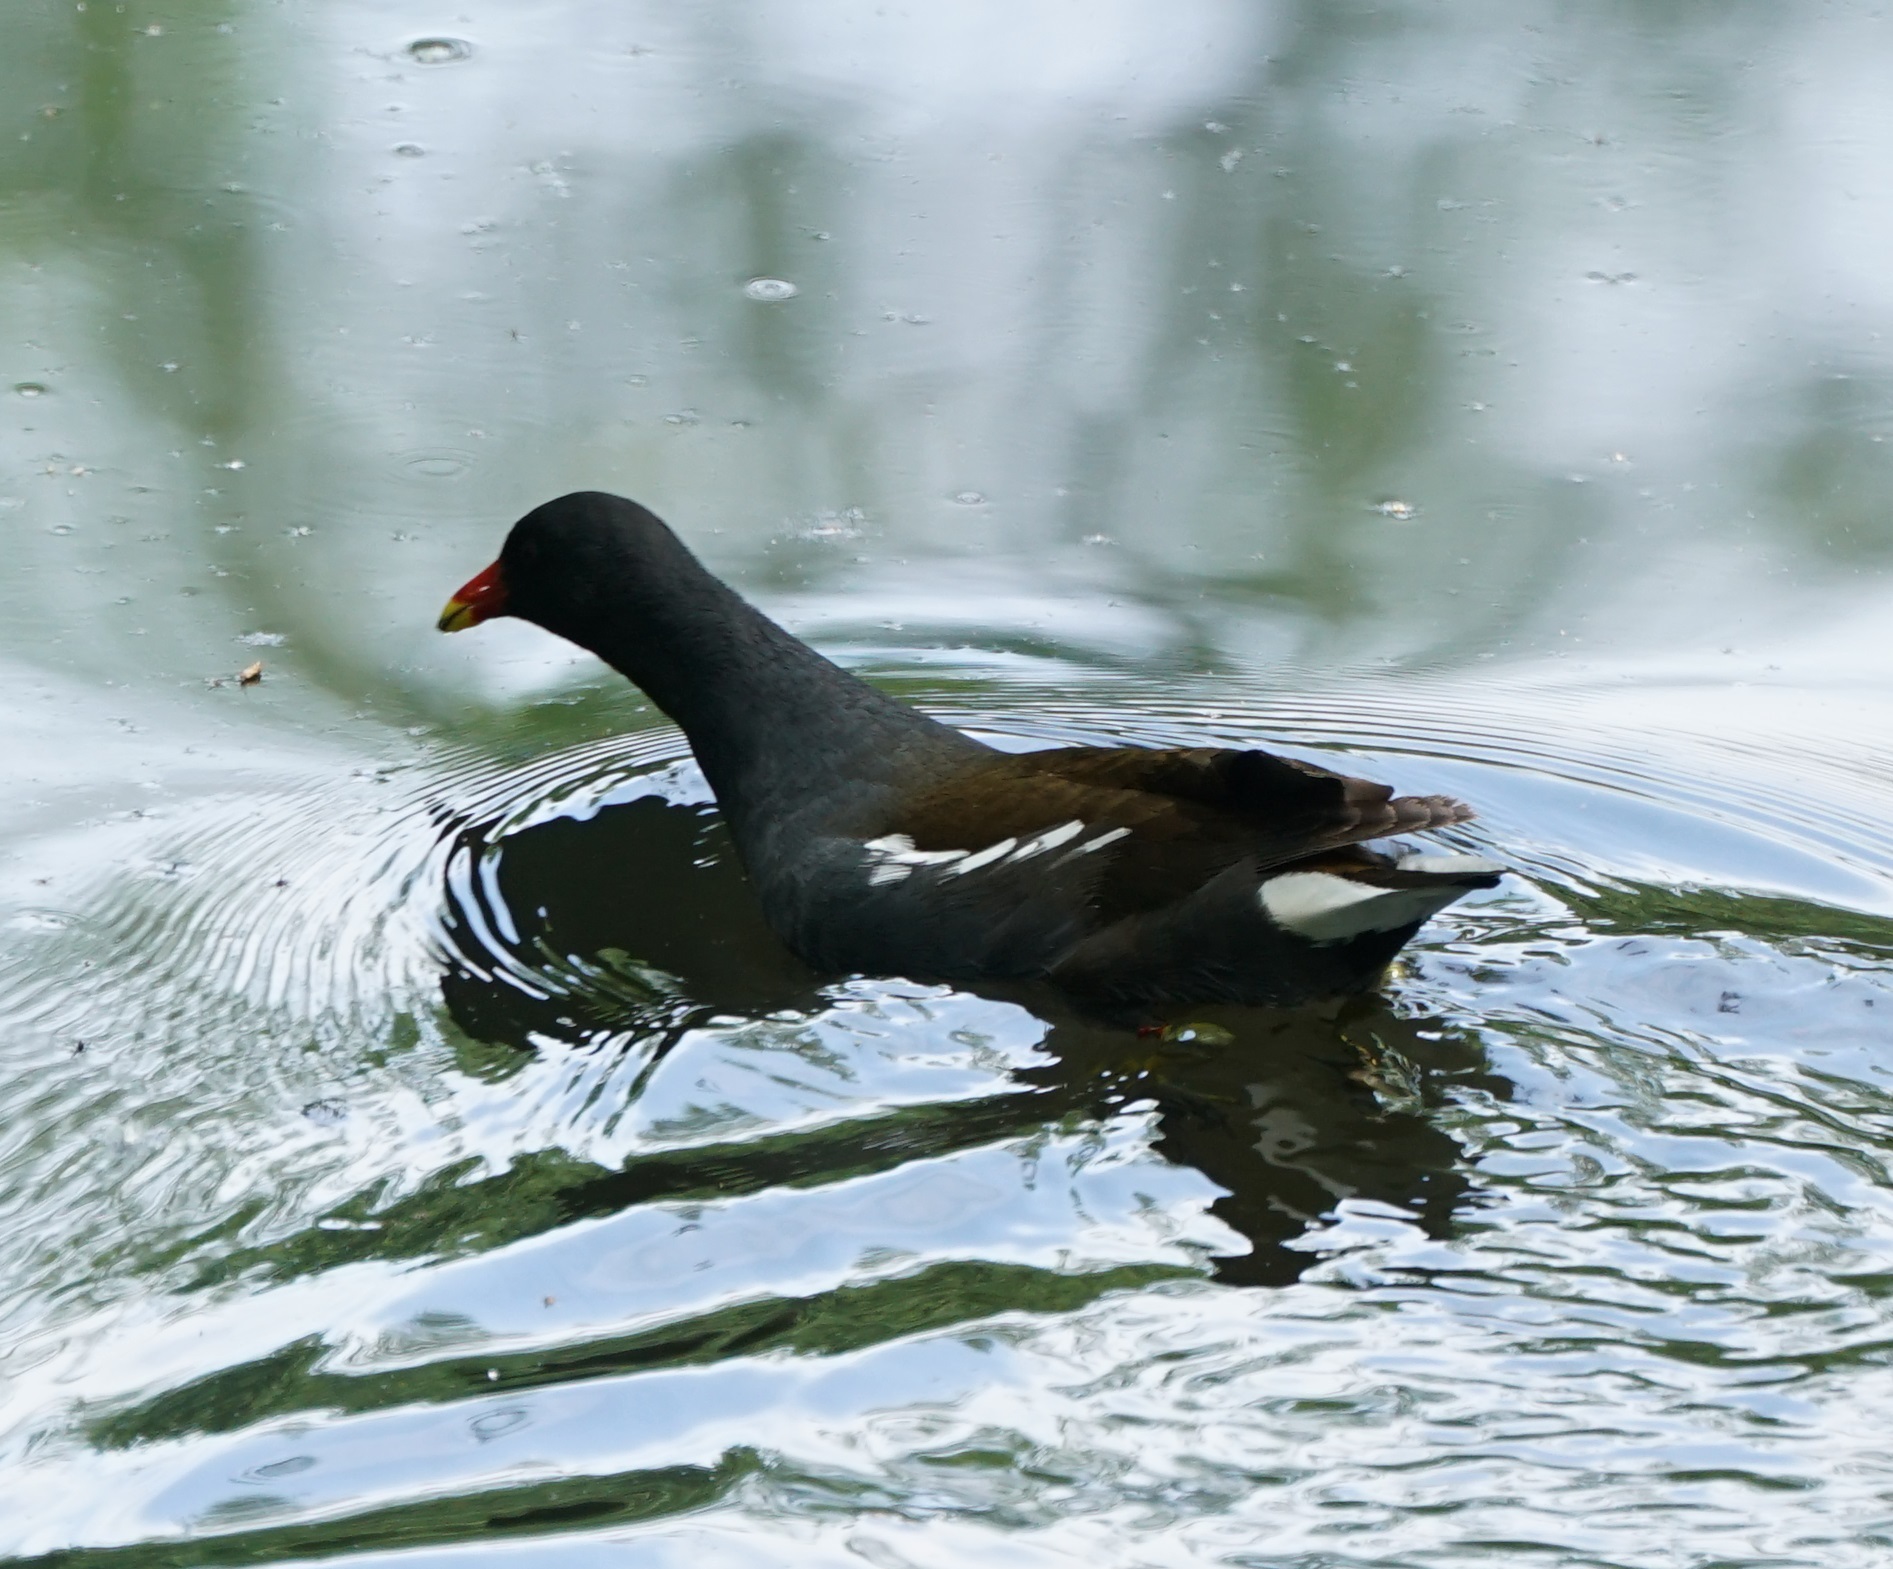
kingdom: Animalia
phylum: Chordata
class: Aves
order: Gruiformes
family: Rallidae
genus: Gallinula
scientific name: Gallinula chloropus
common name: Common moorhen
